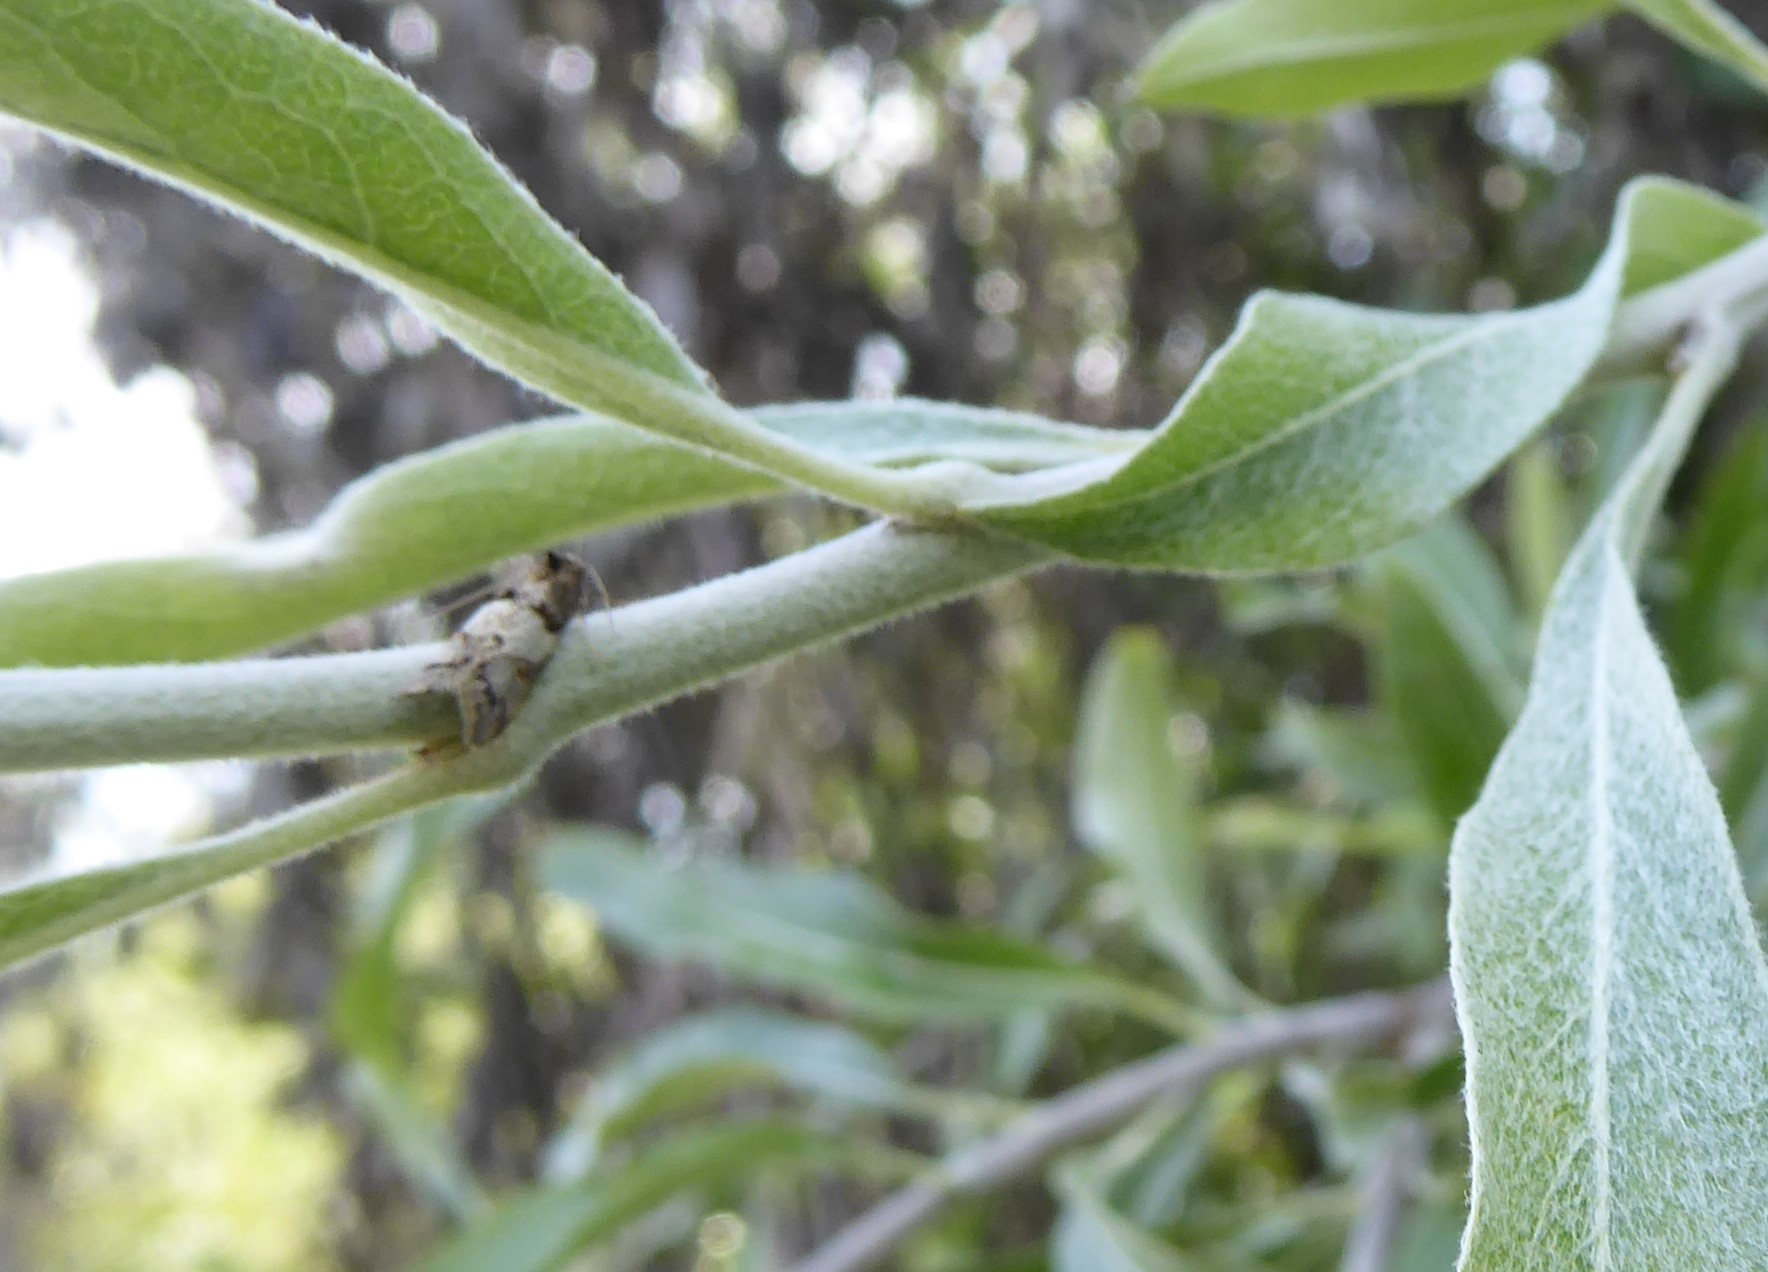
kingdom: Animalia
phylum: Arthropoda
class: Insecta
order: Lepidoptera
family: Oecophoridae
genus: Trachypepla
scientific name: Trachypepla contritella
